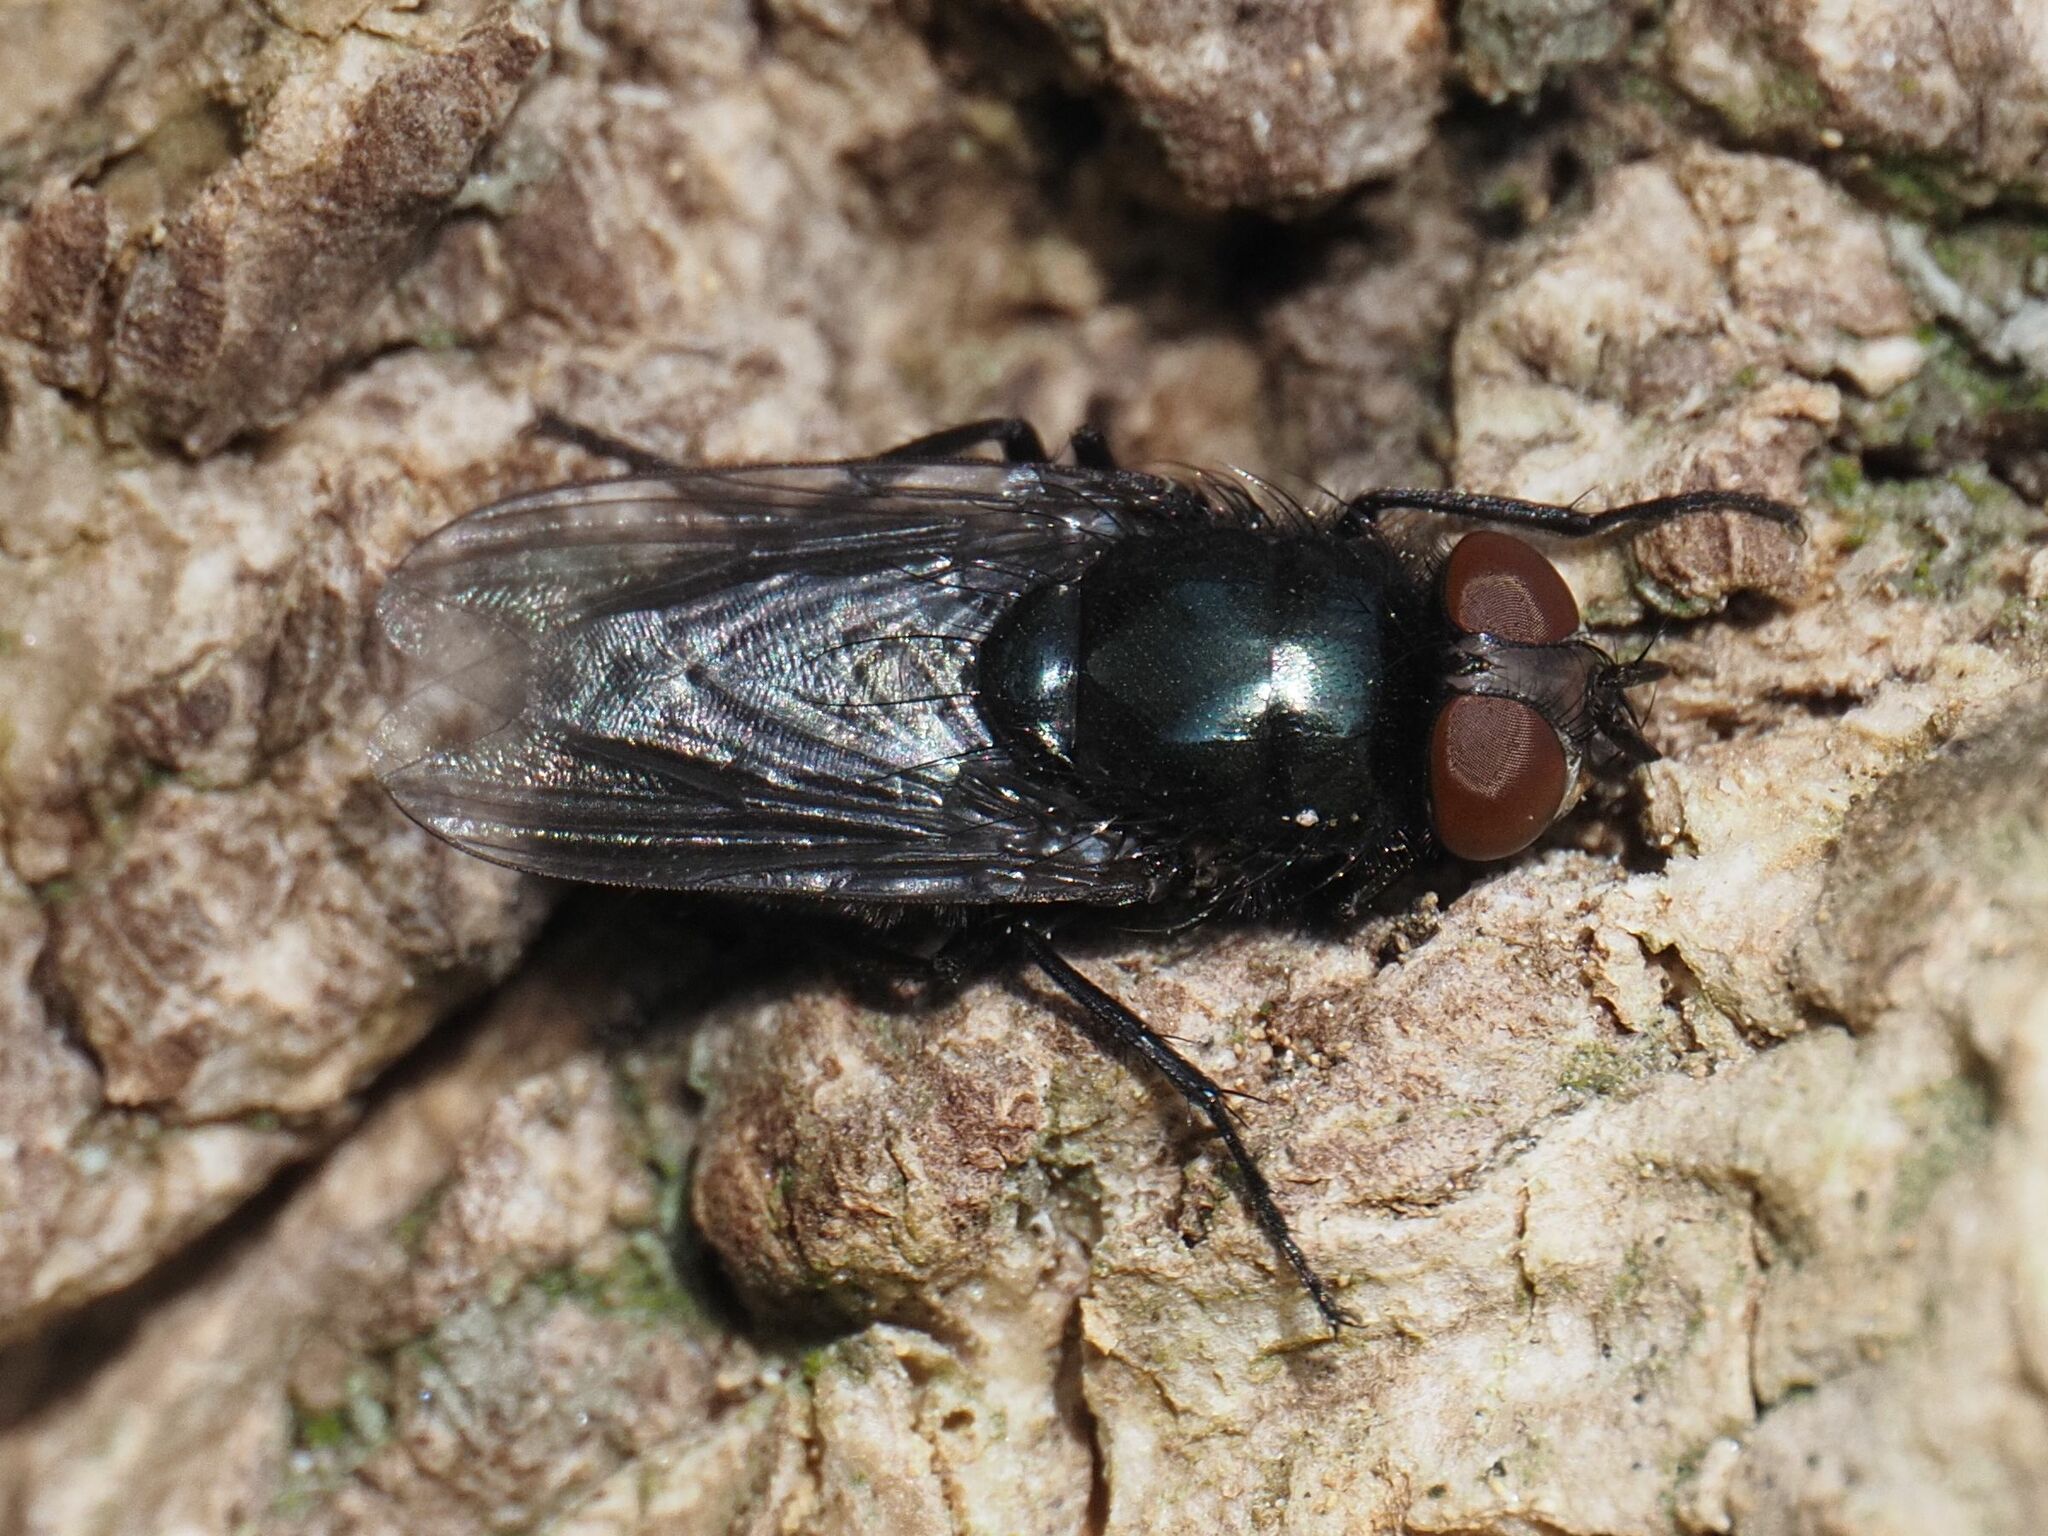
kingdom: Animalia
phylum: Arthropoda
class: Insecta
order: Diptera
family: Calliphoridae
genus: Protophormia
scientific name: Protophormia terraenovae
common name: Blackbottle
